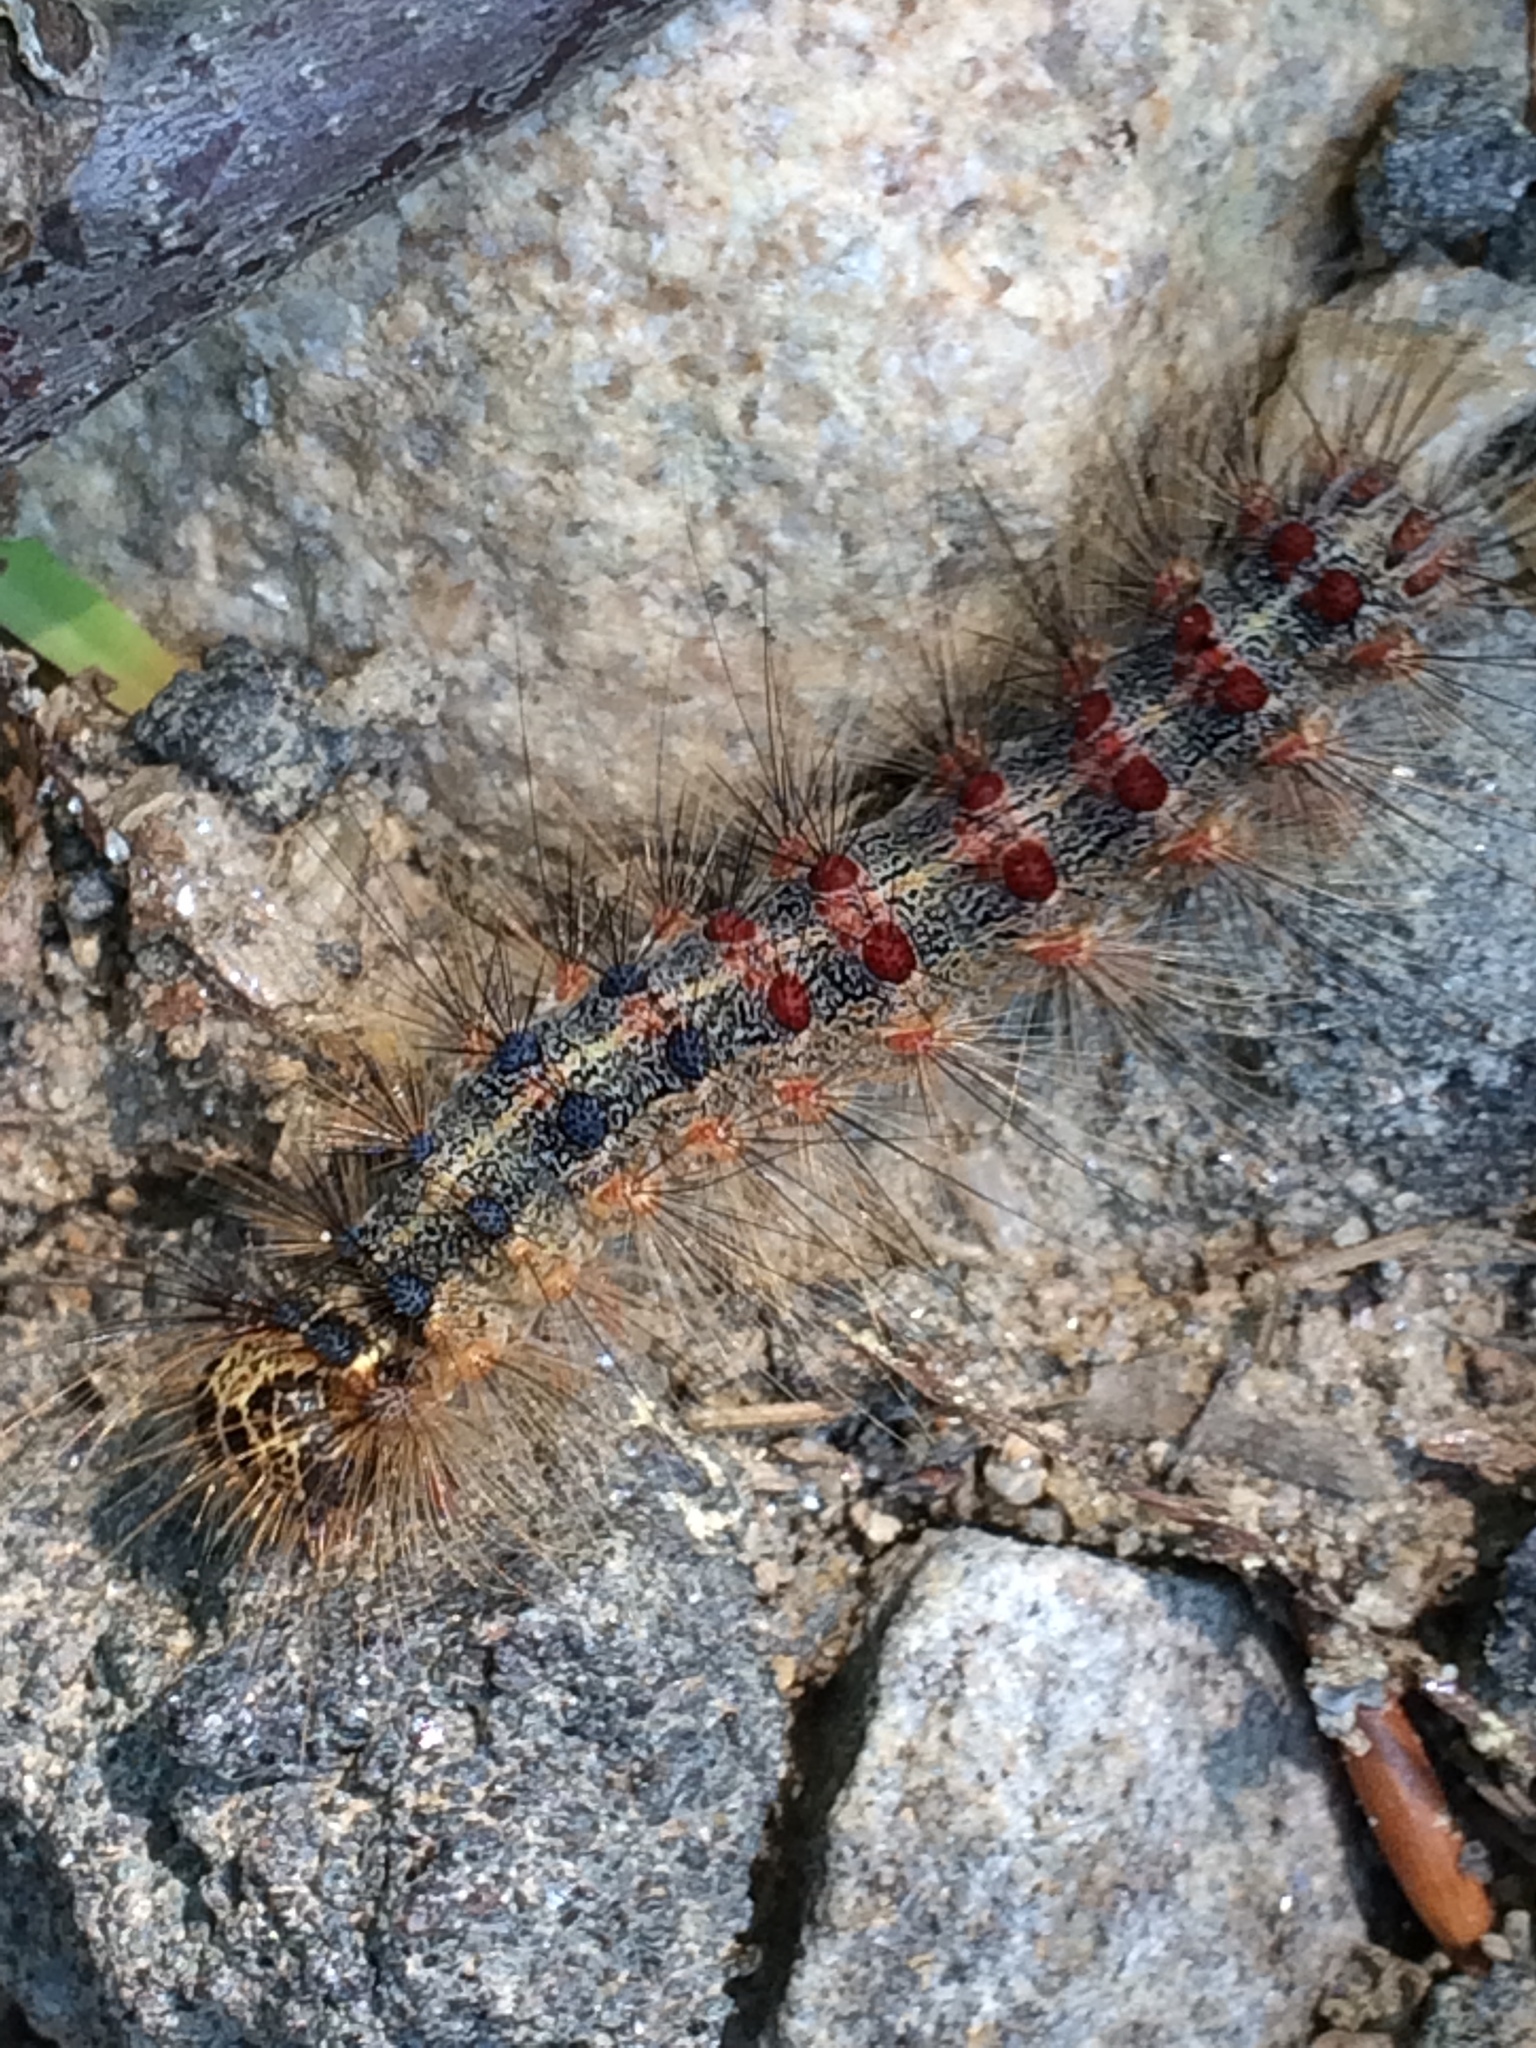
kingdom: Animalia
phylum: Arthropoda
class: Insecta
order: Lepidoptera
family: Erebidae
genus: Lymantria
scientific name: Lymantria dispar
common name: Gypsy moth
